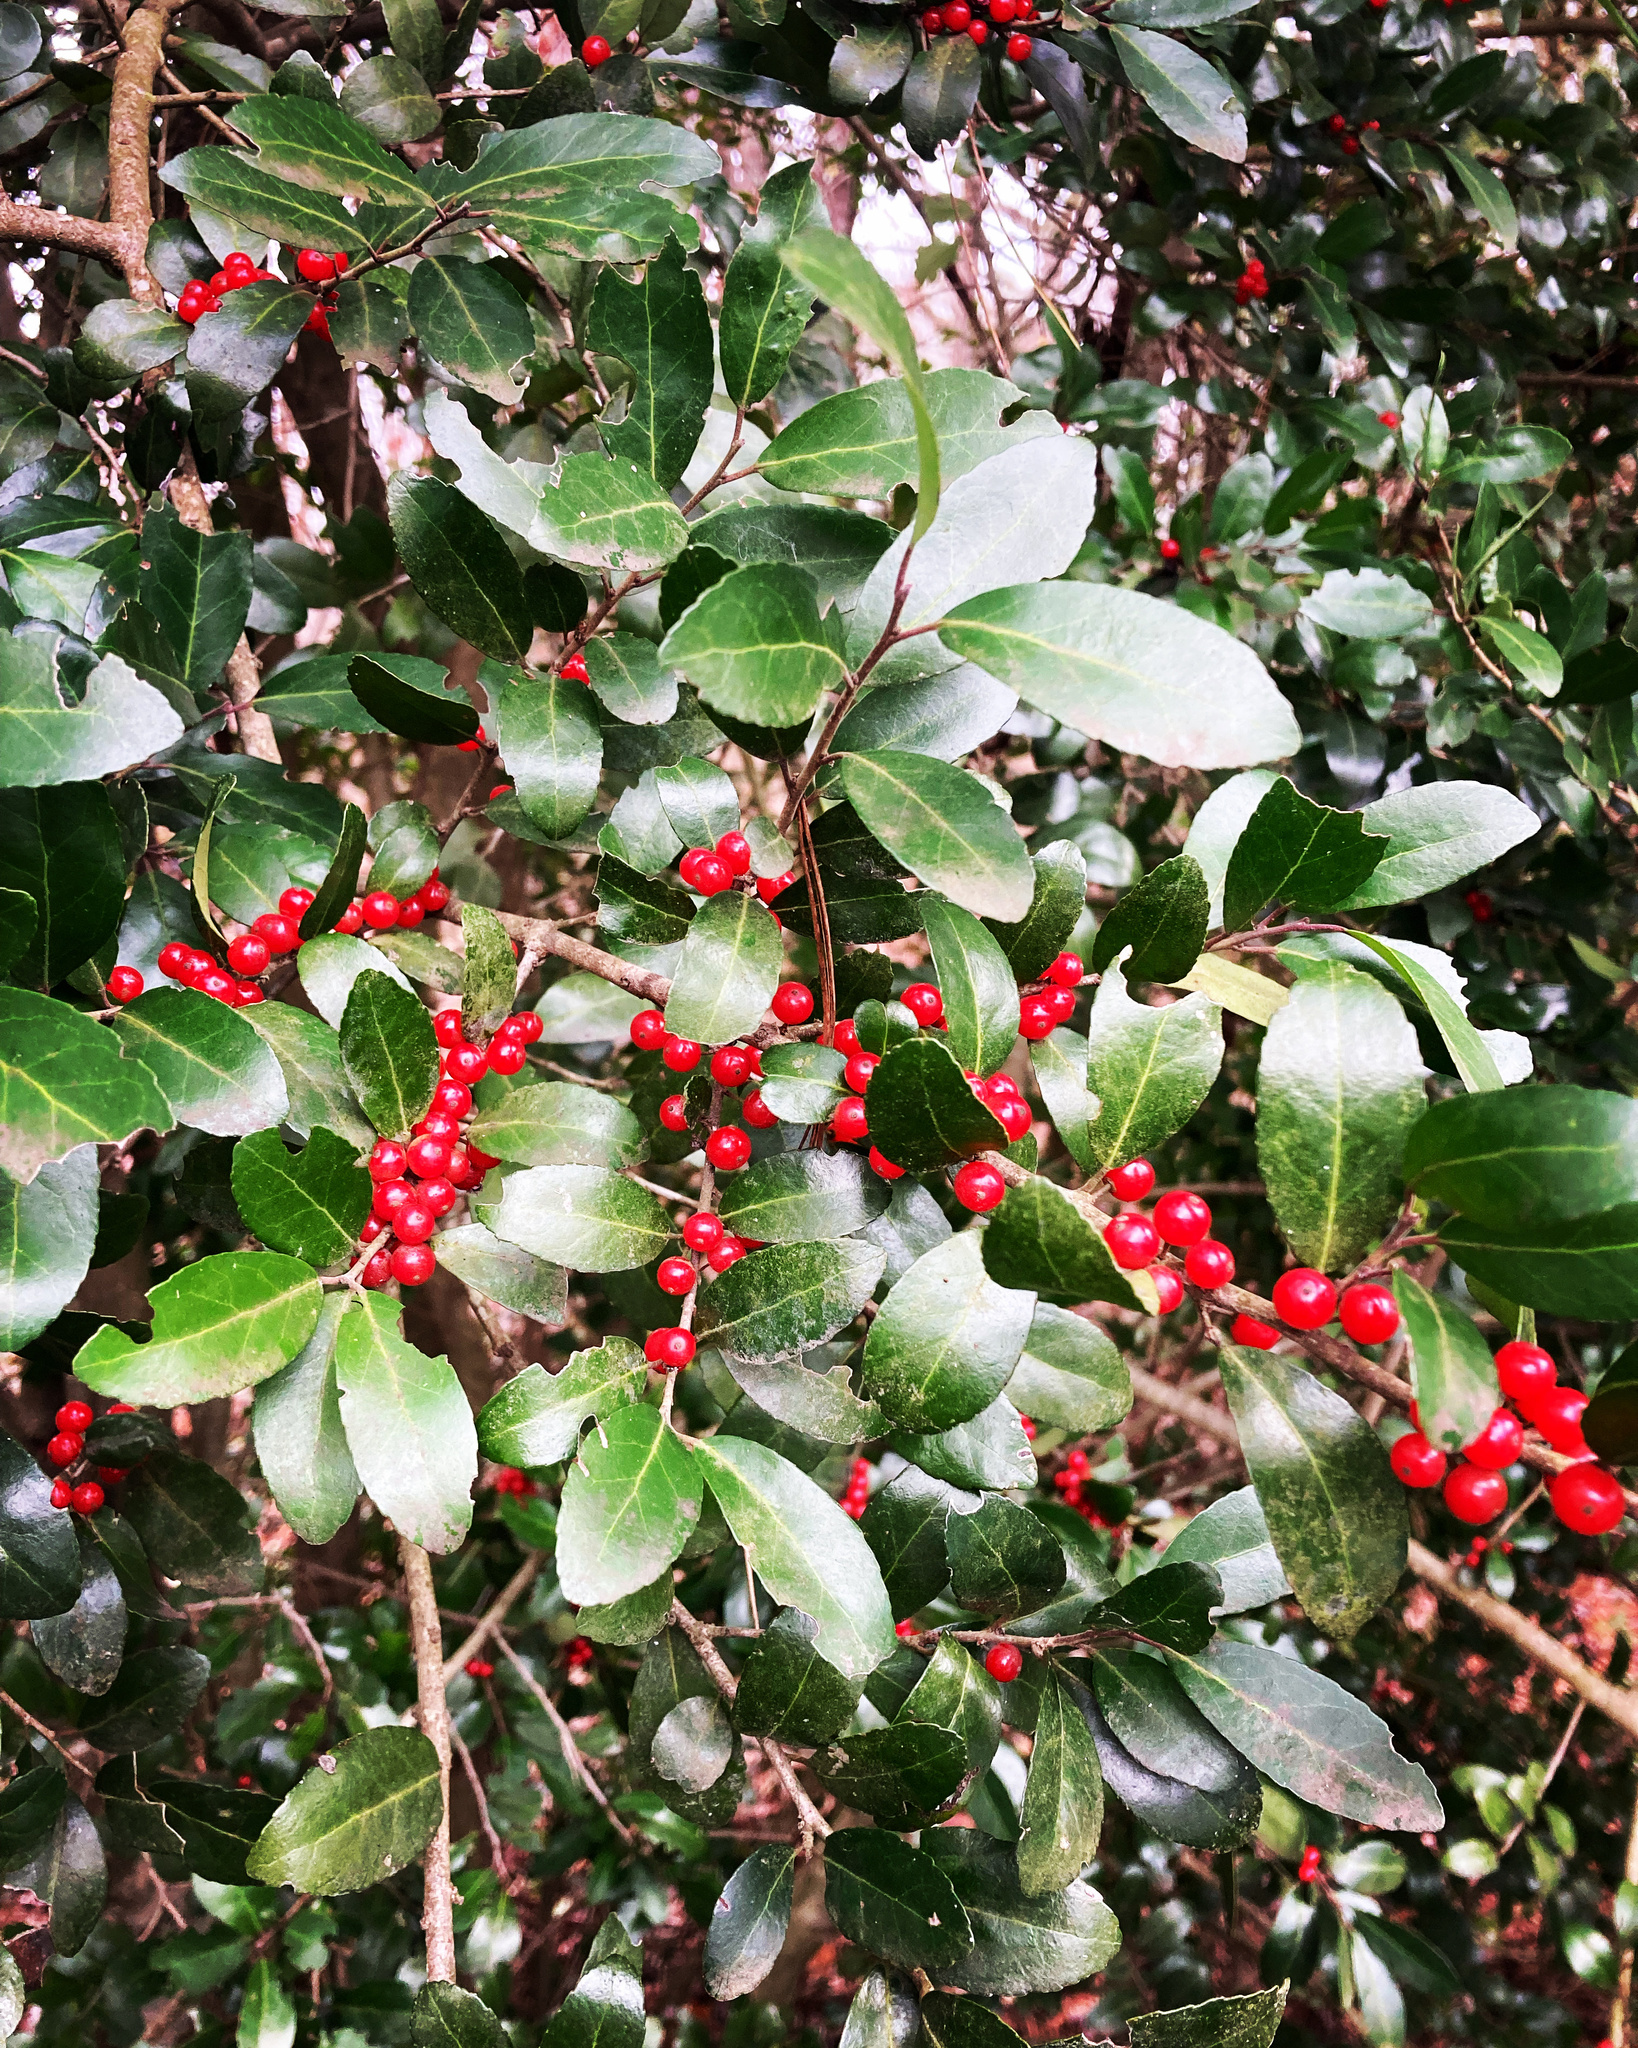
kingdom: Plantae
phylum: Tracheophyta
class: Magnoliopsida
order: Aquifoliales
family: Aquifoliaceae
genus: Ilex
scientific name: Ilex vomitoria
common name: Yaupon holly
